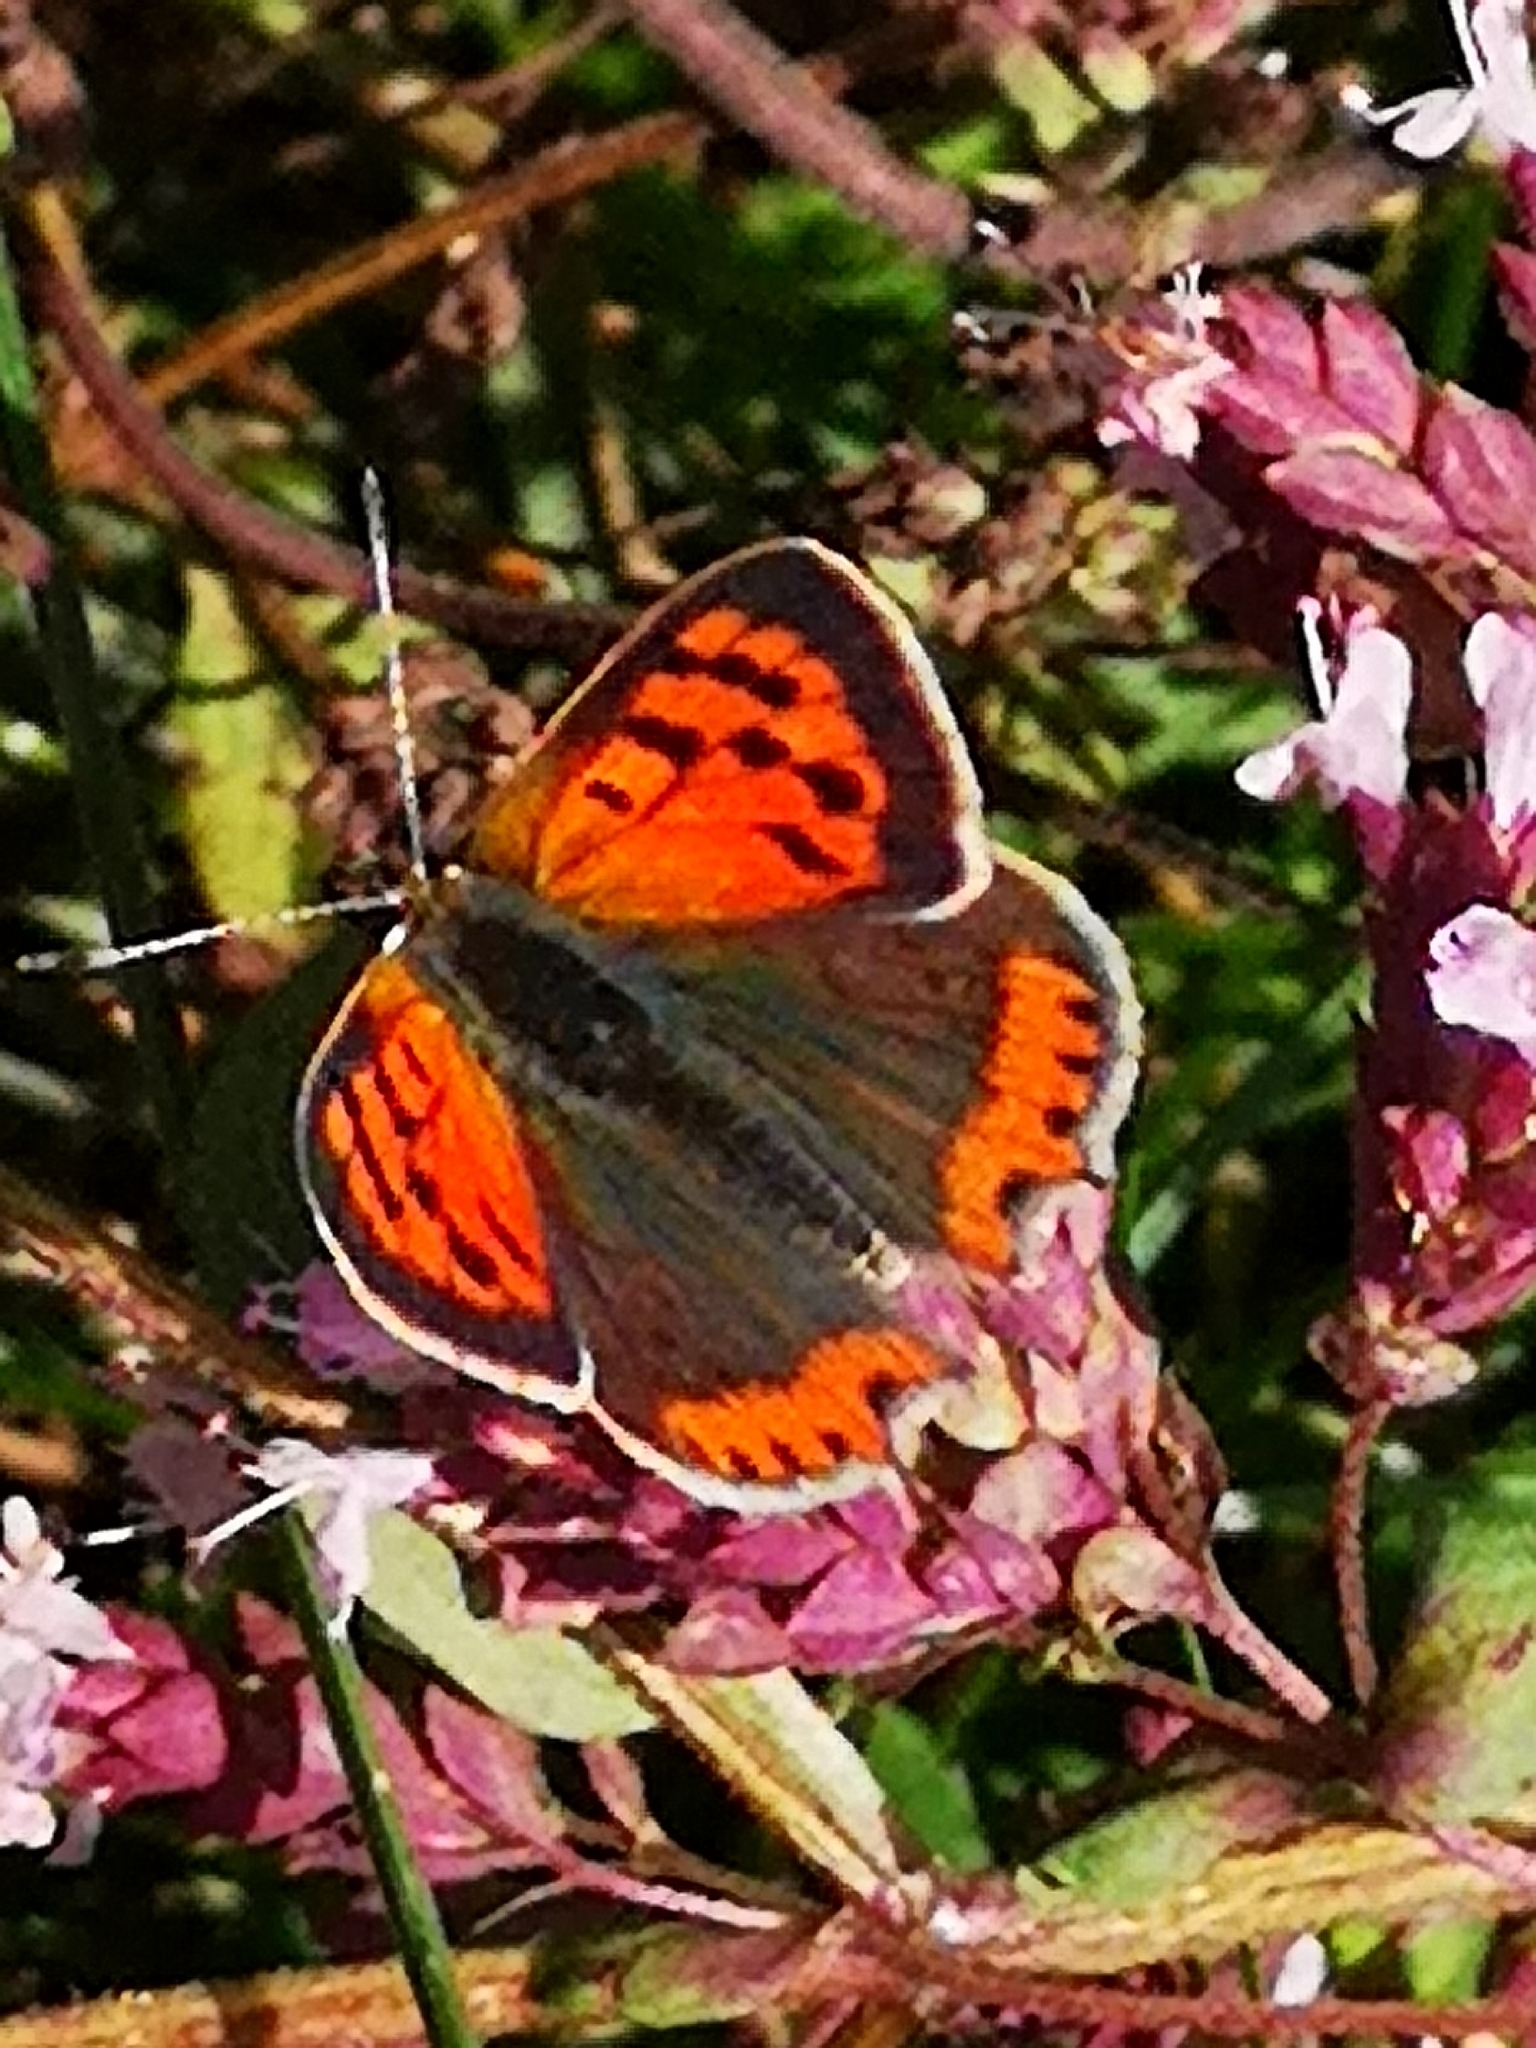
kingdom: Animalia
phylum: Arthropoda
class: Insecta
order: Lepidoptera
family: Lycaenidae
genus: Lycaena
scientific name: Lycaena phlaeas
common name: Small copper
